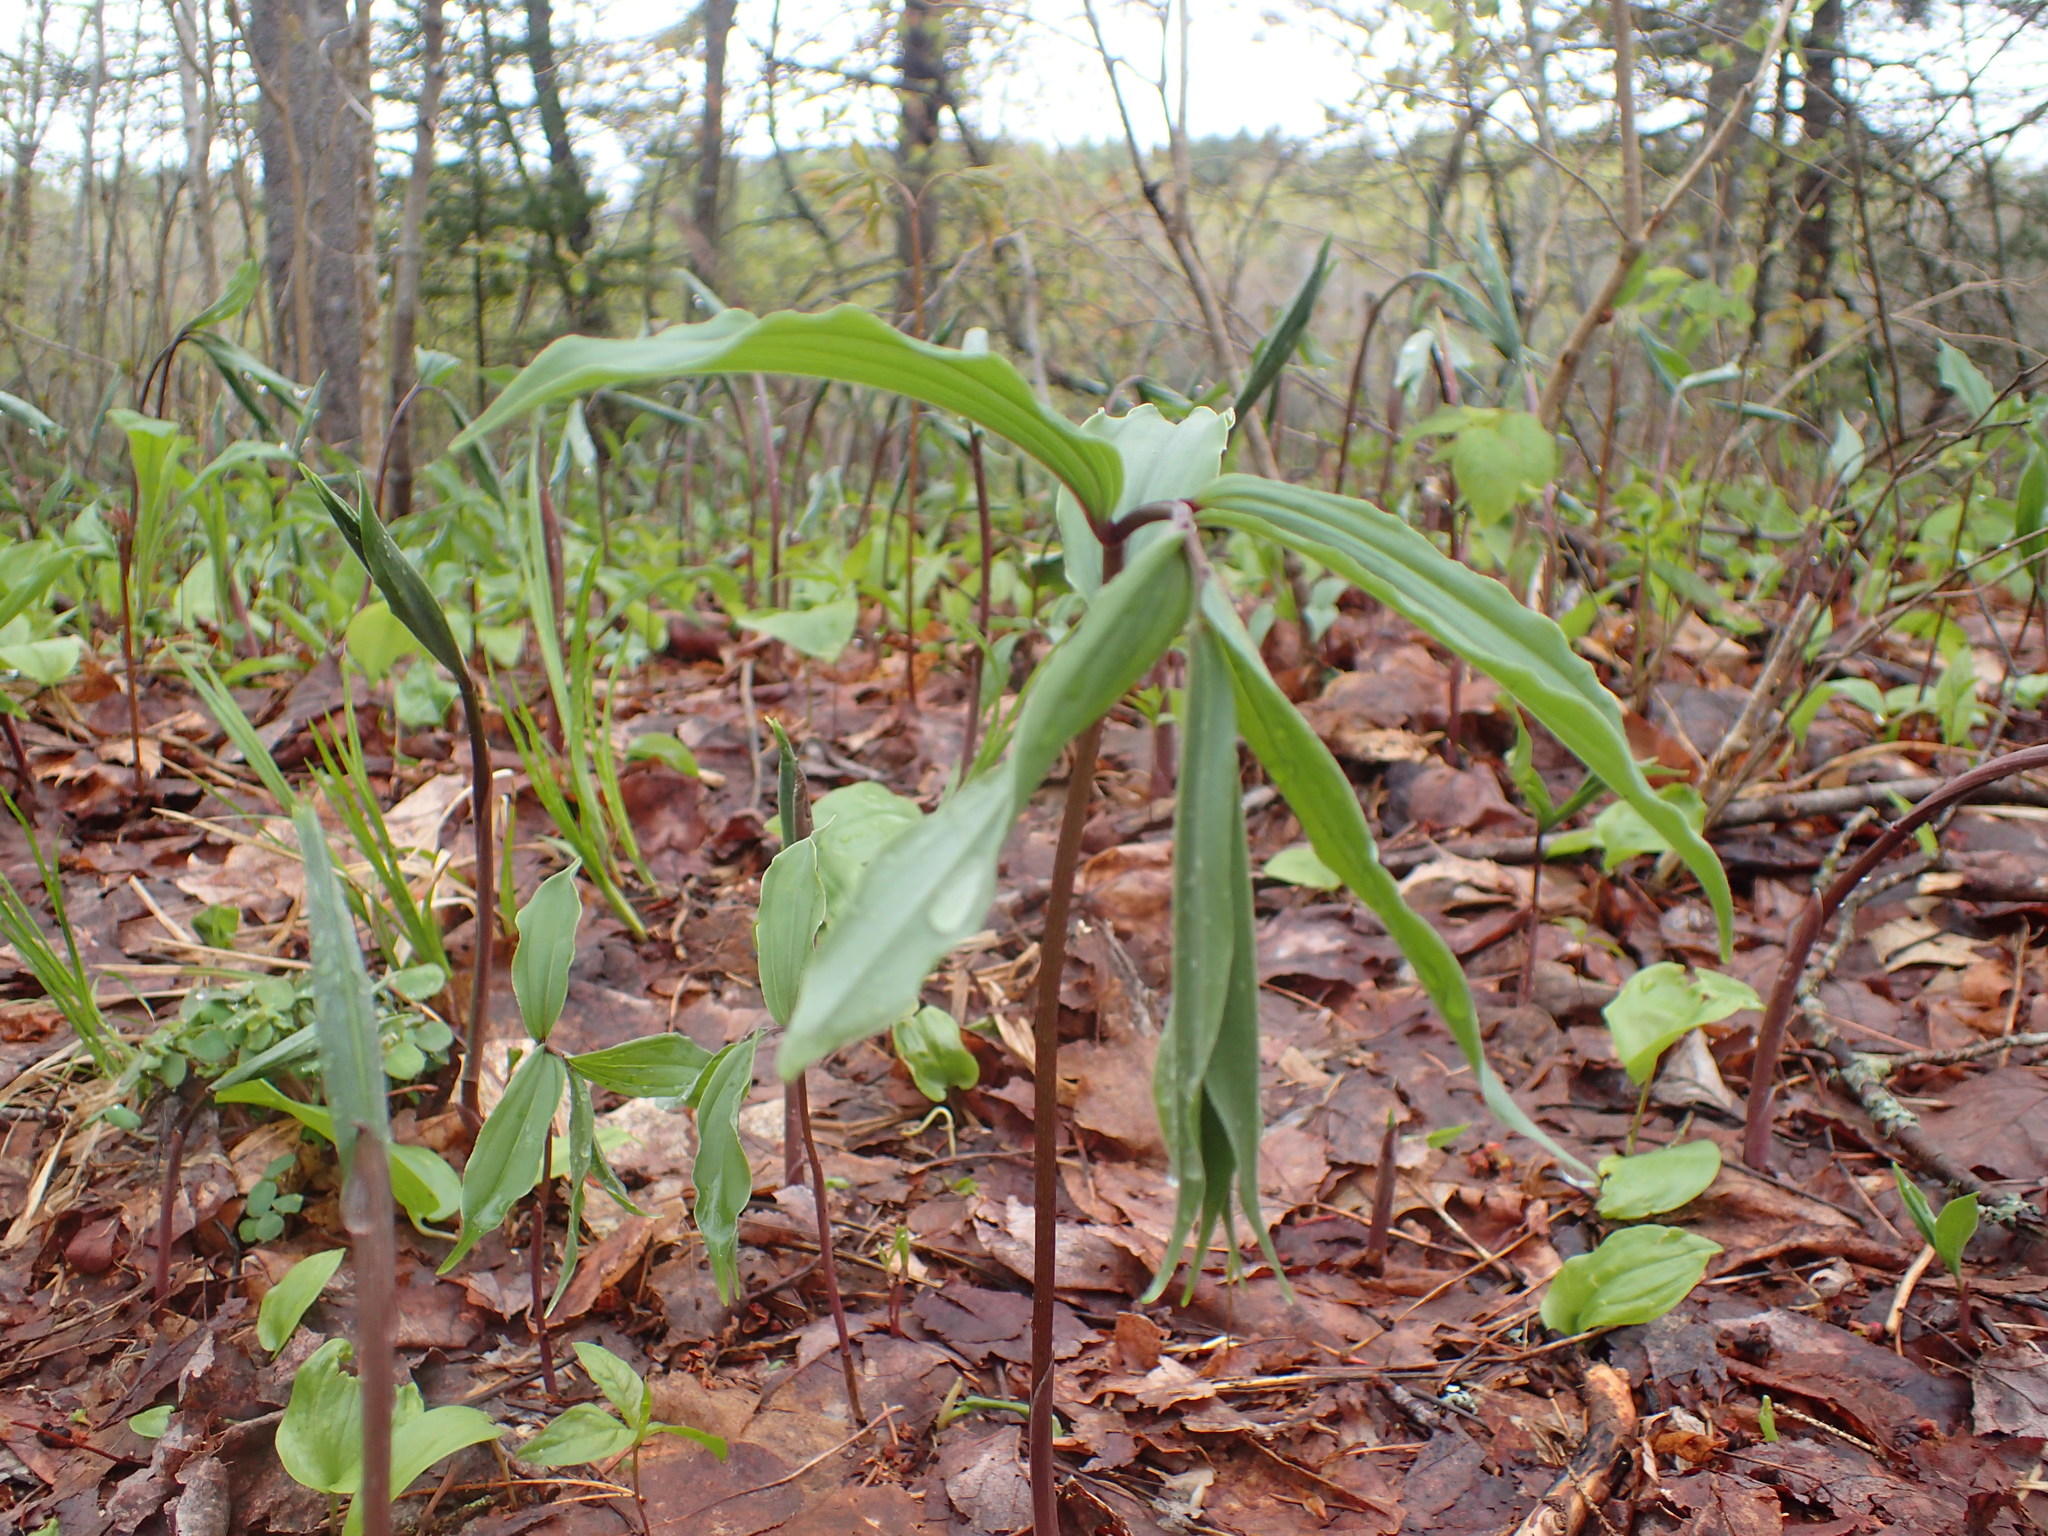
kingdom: Plantae
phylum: Tracheophyta
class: Liliopsida
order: Asparagales
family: Asparagaceae
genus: Maianthemum
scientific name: Maianthemum racemosum
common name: False spikenard
